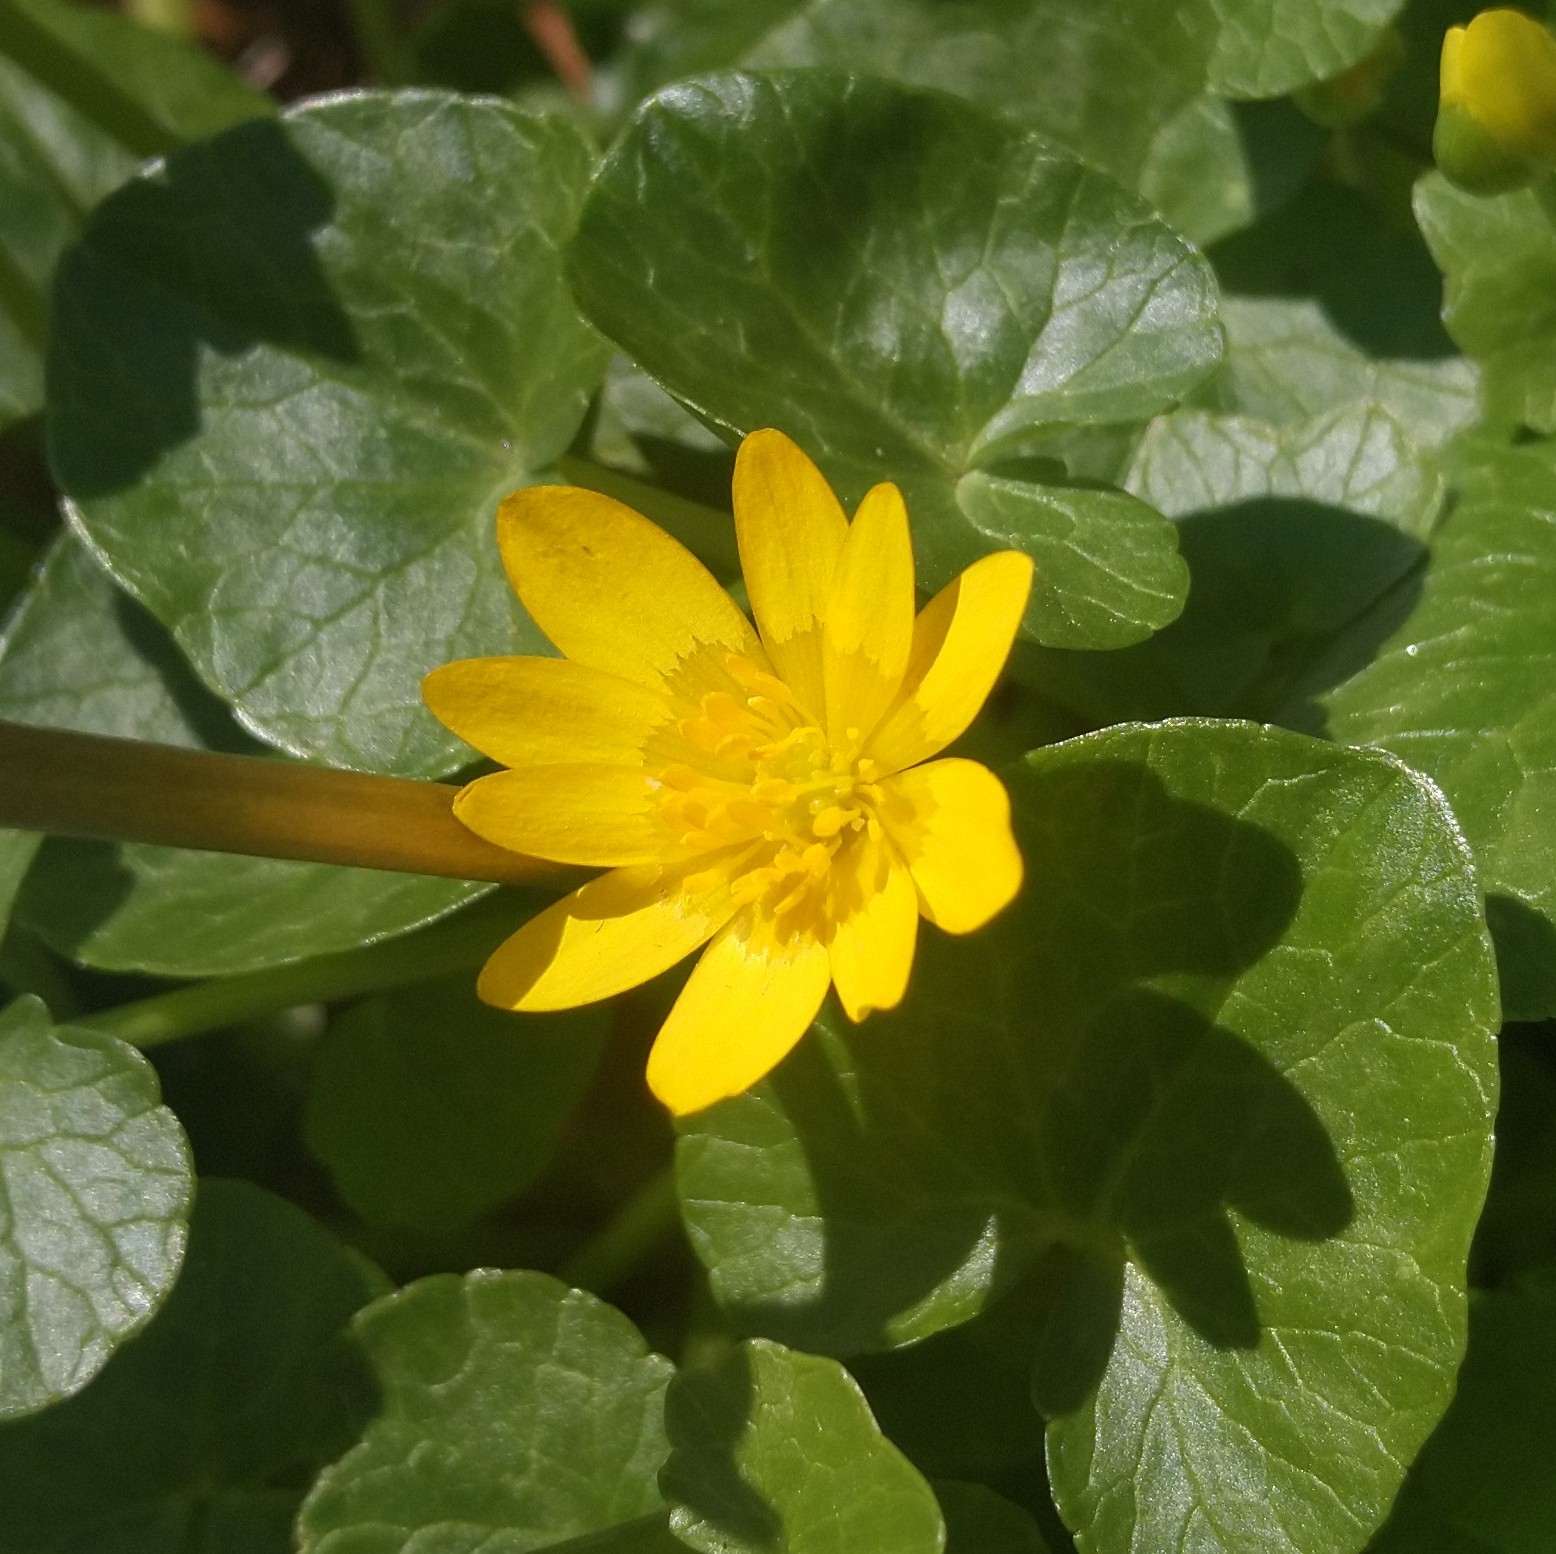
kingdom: Plantae
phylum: Tracheophyta
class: Magnoliopsida
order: Ranunculales
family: Ranunculaceae
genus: Ficaria
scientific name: Ficaria verna
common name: Lesser celandine
